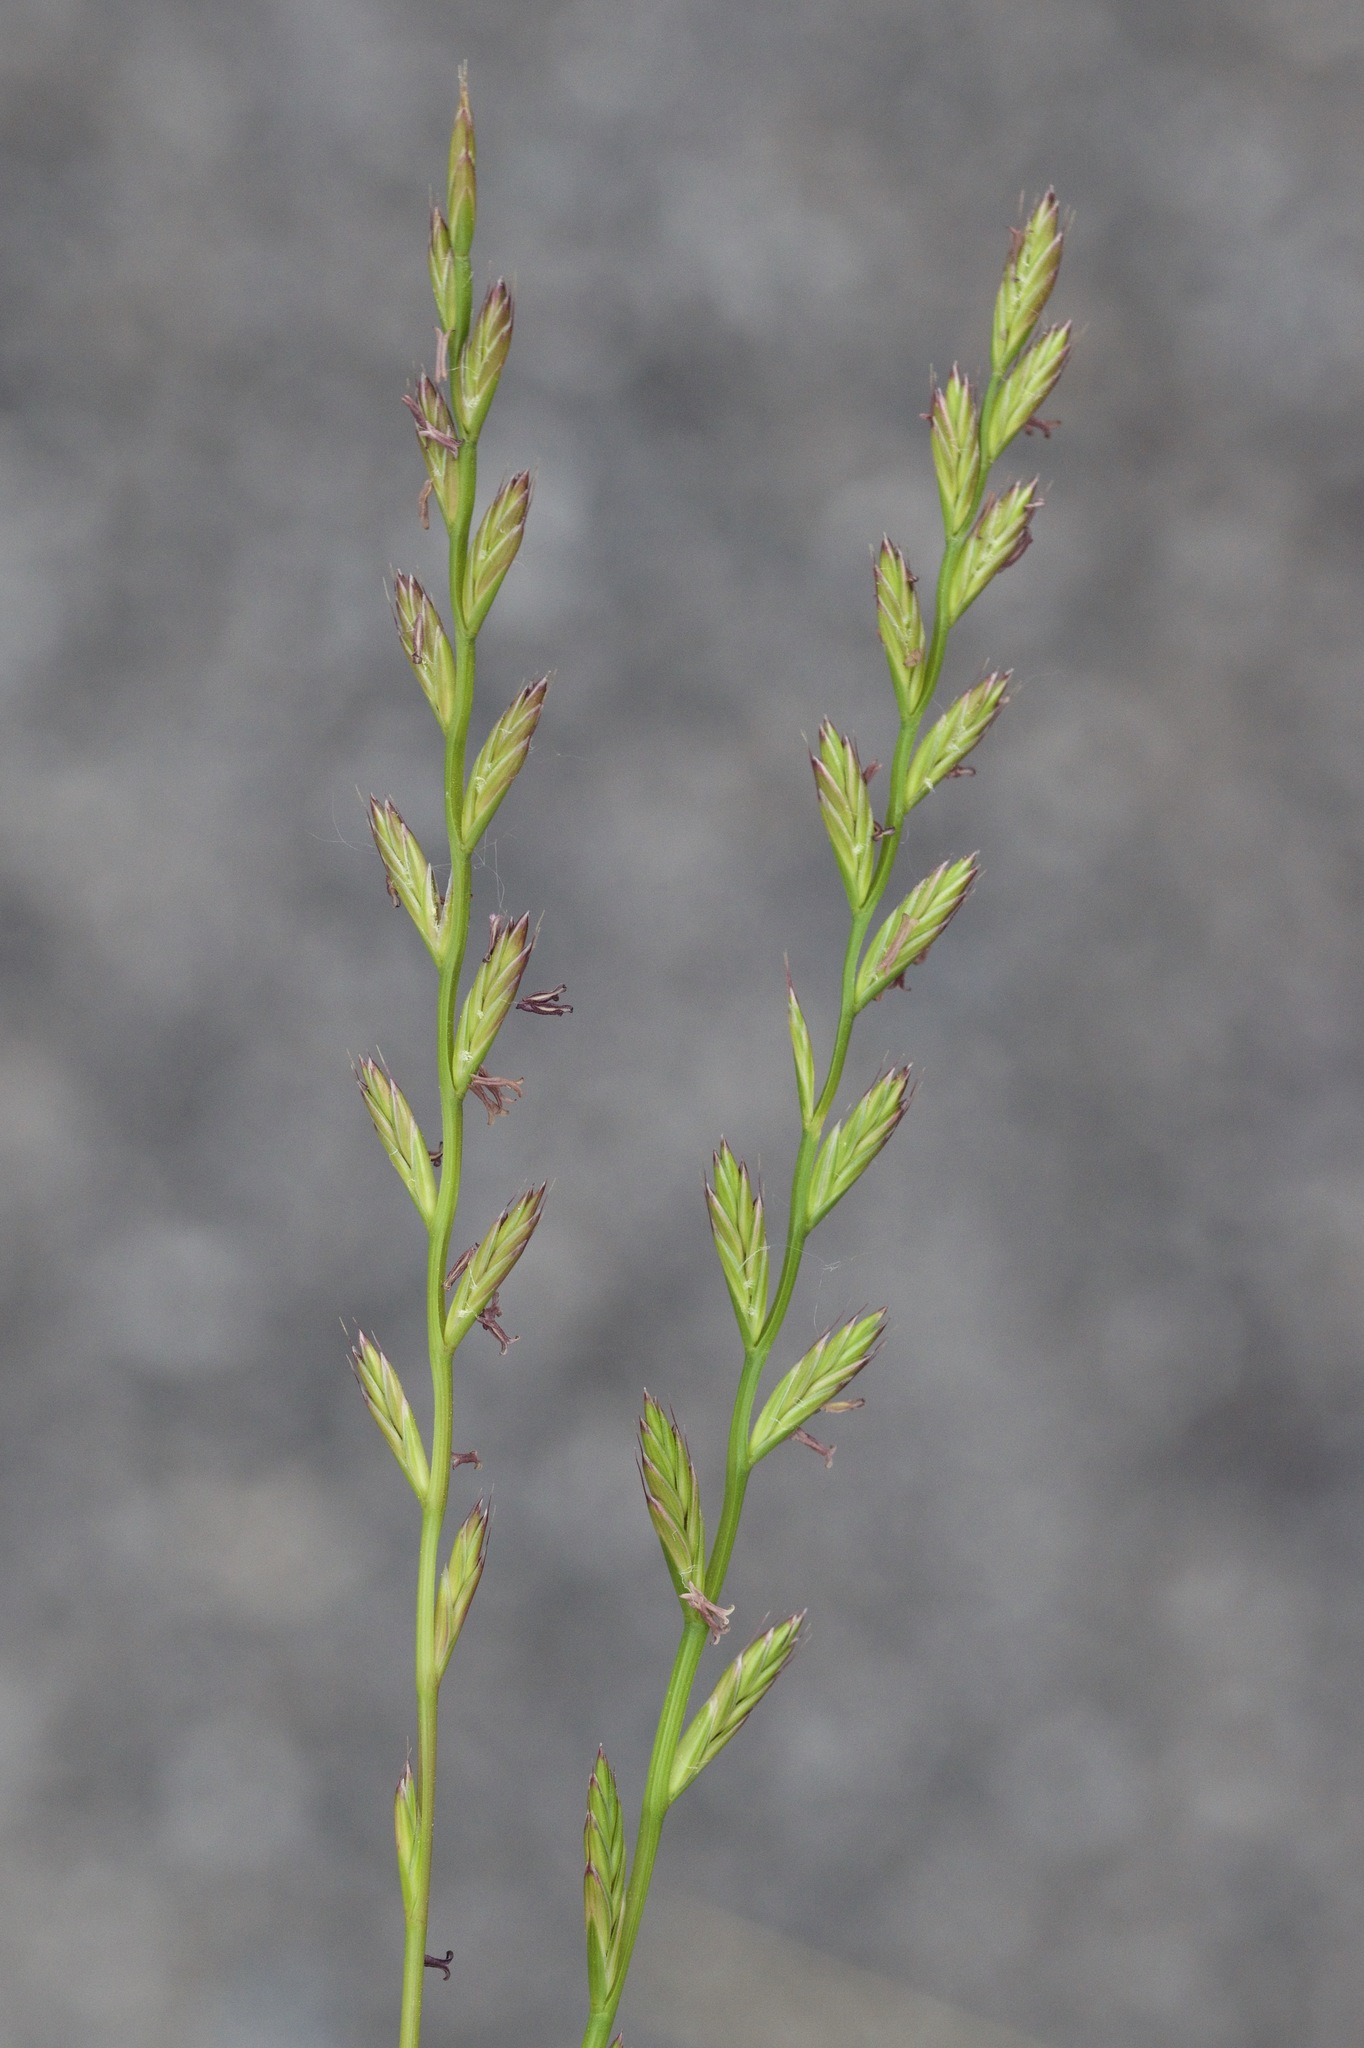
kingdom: Plantae
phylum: Tracheophyta
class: Liliopsida
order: Poales
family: Poaceae
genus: Lolium
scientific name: Lolium perenne
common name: Perennial ryegrass
